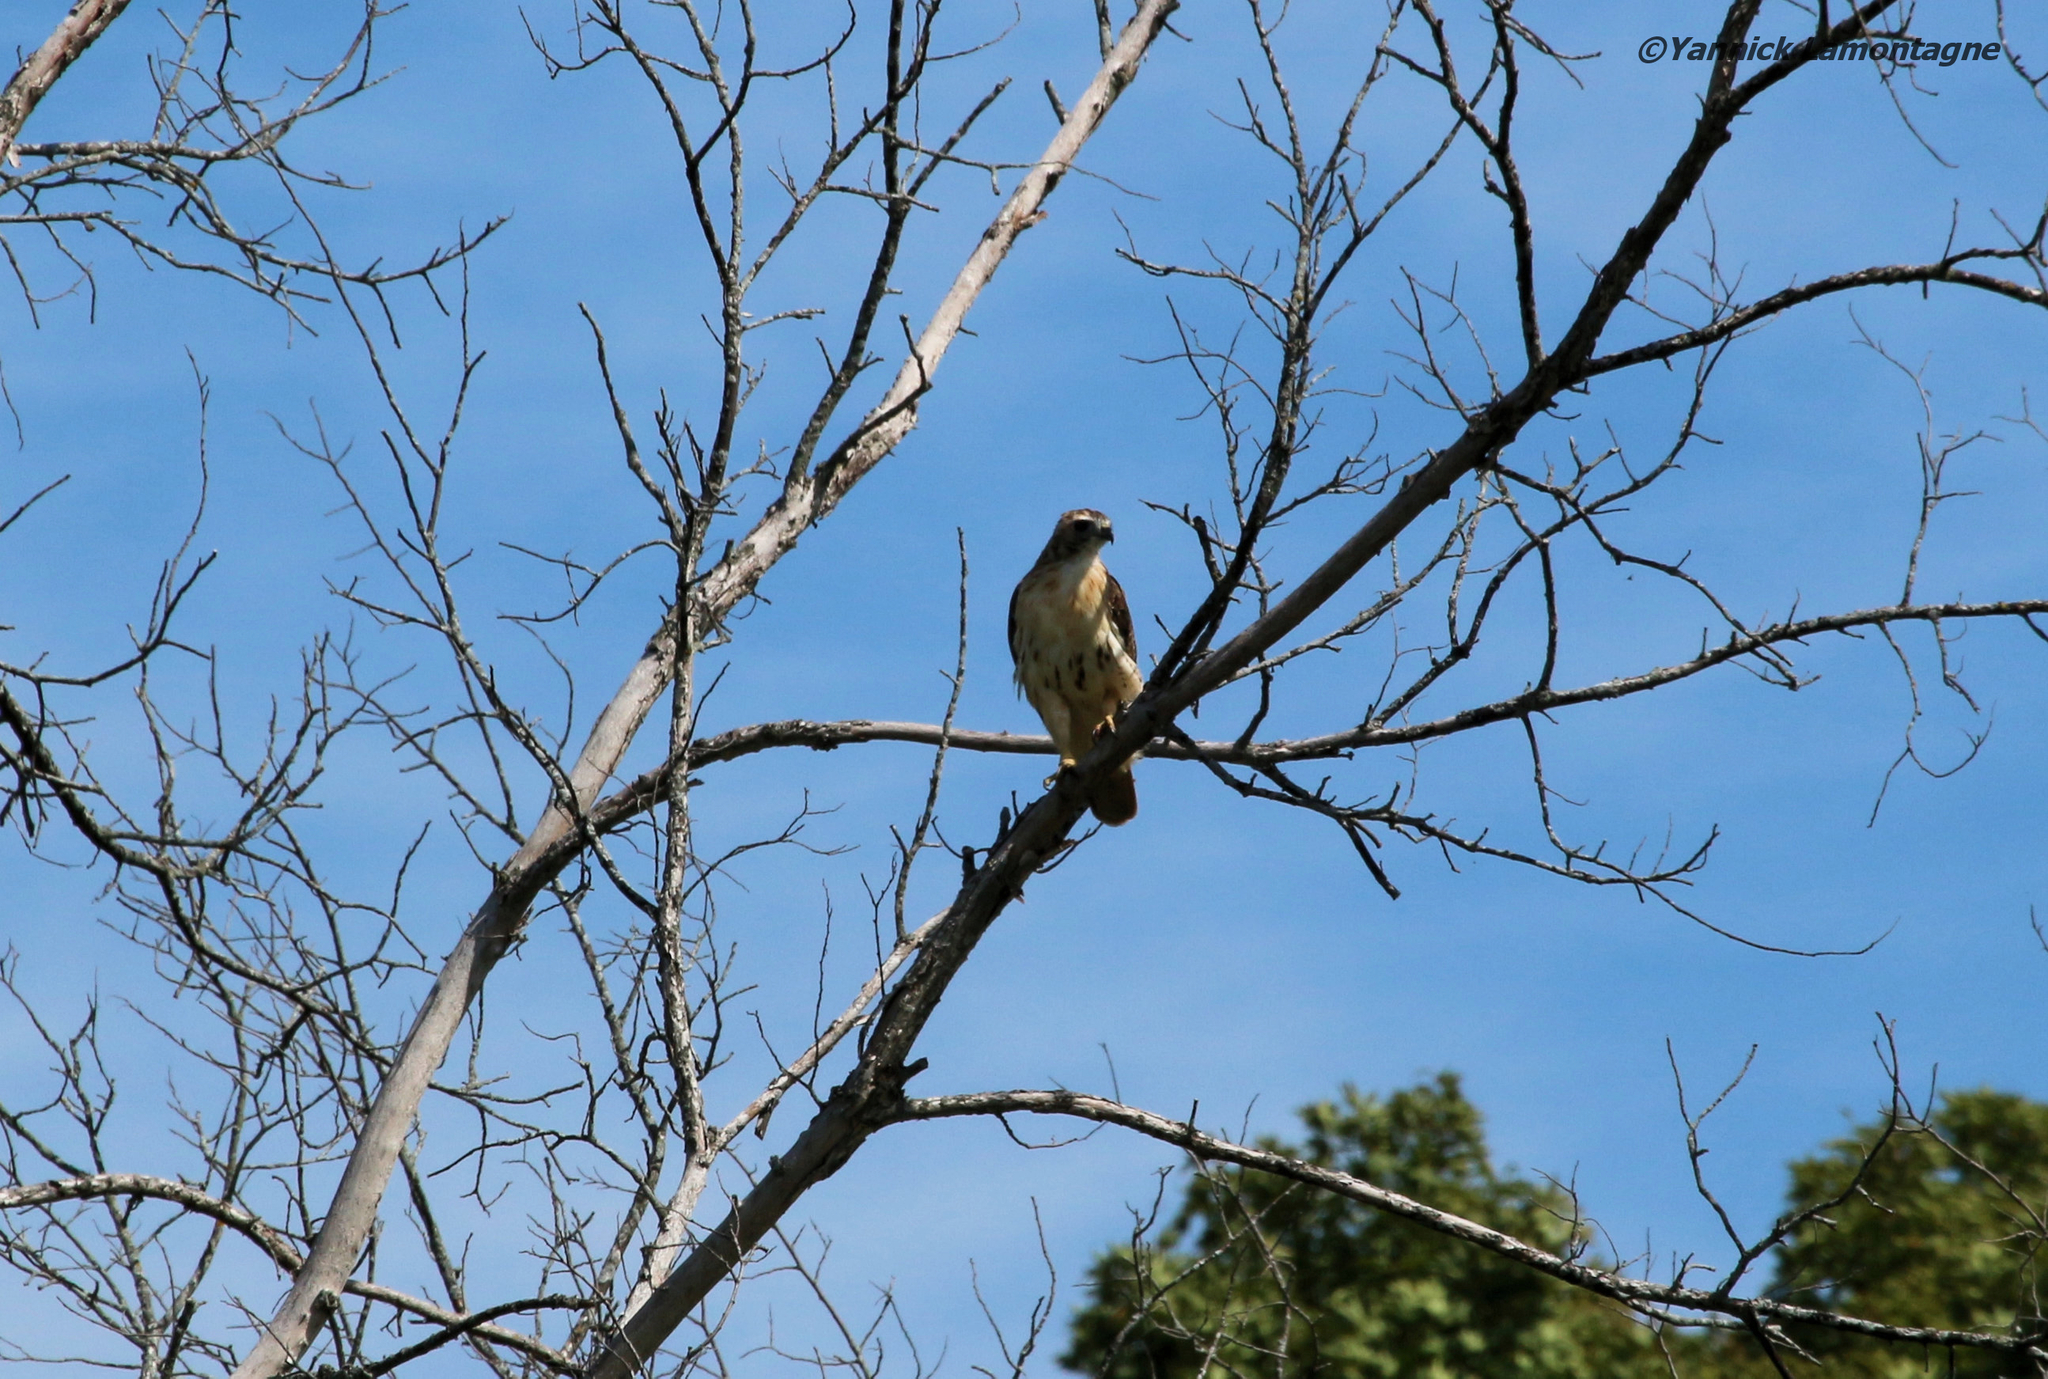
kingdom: Animalia
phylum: Chordata
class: Aves
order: Accipitriformes
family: Accipitridae
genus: Buteo
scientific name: Buteo jamaicensis
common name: Red-tailed hawk
